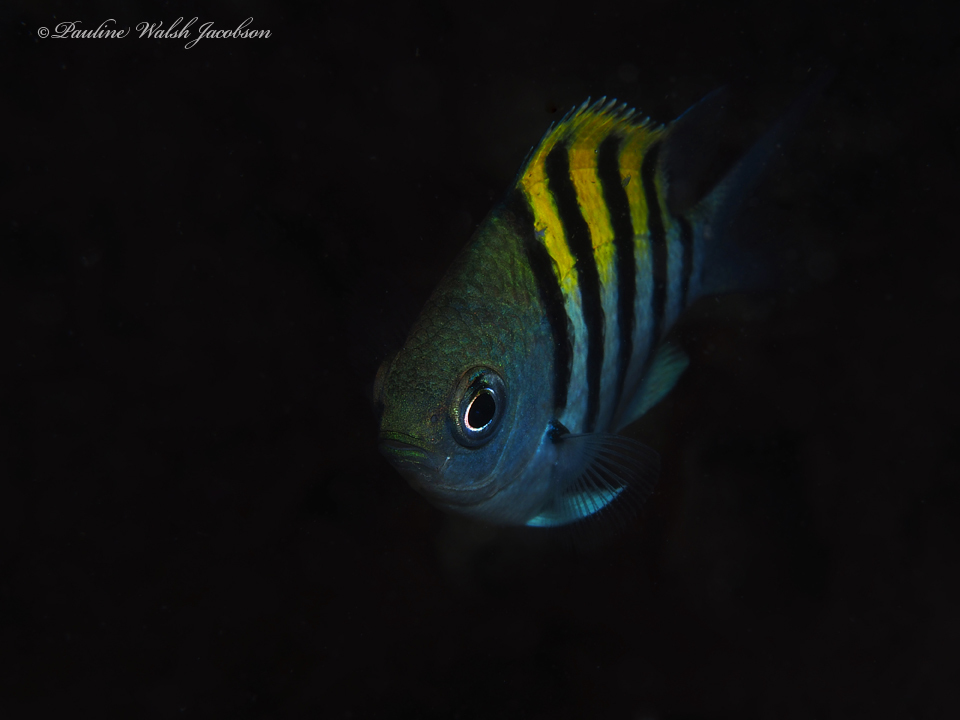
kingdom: Animalia
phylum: Chordata
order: Perciformes
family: Pomacentridae
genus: Abudefduf
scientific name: Abudefduf saxatilis
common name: Sergeant major
